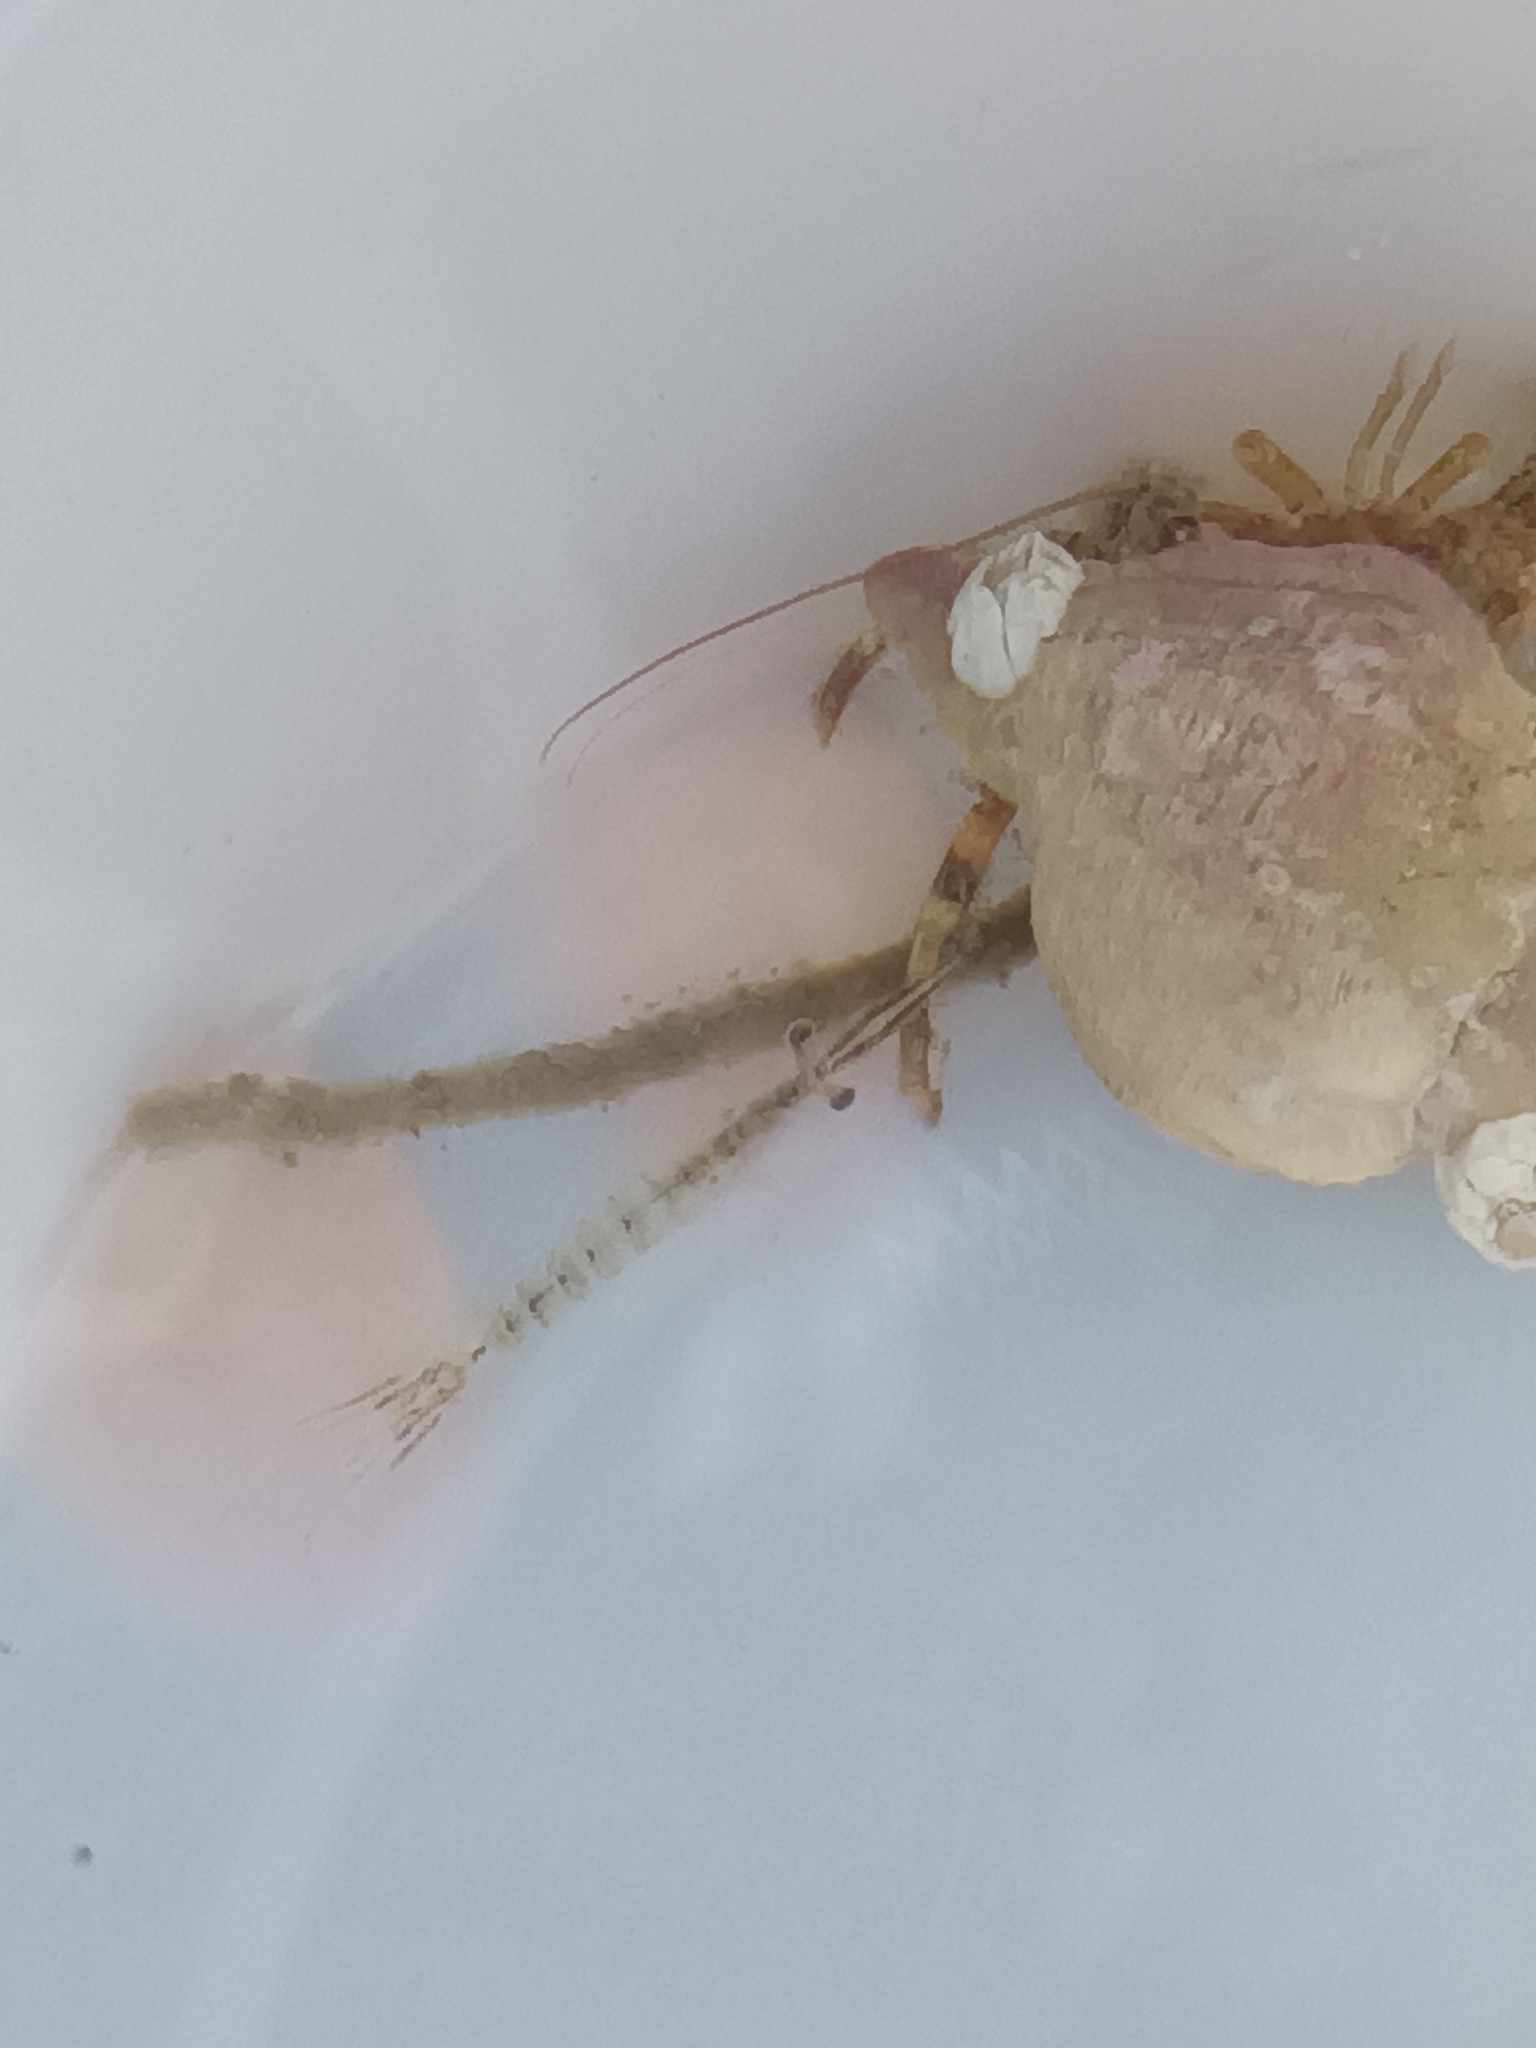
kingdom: Animalia
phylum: Arthropoda
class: Malacostraca
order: Decapoda
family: Paguridae
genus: Pagurus
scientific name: Pagurus annulipes
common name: Brown banded hermit
